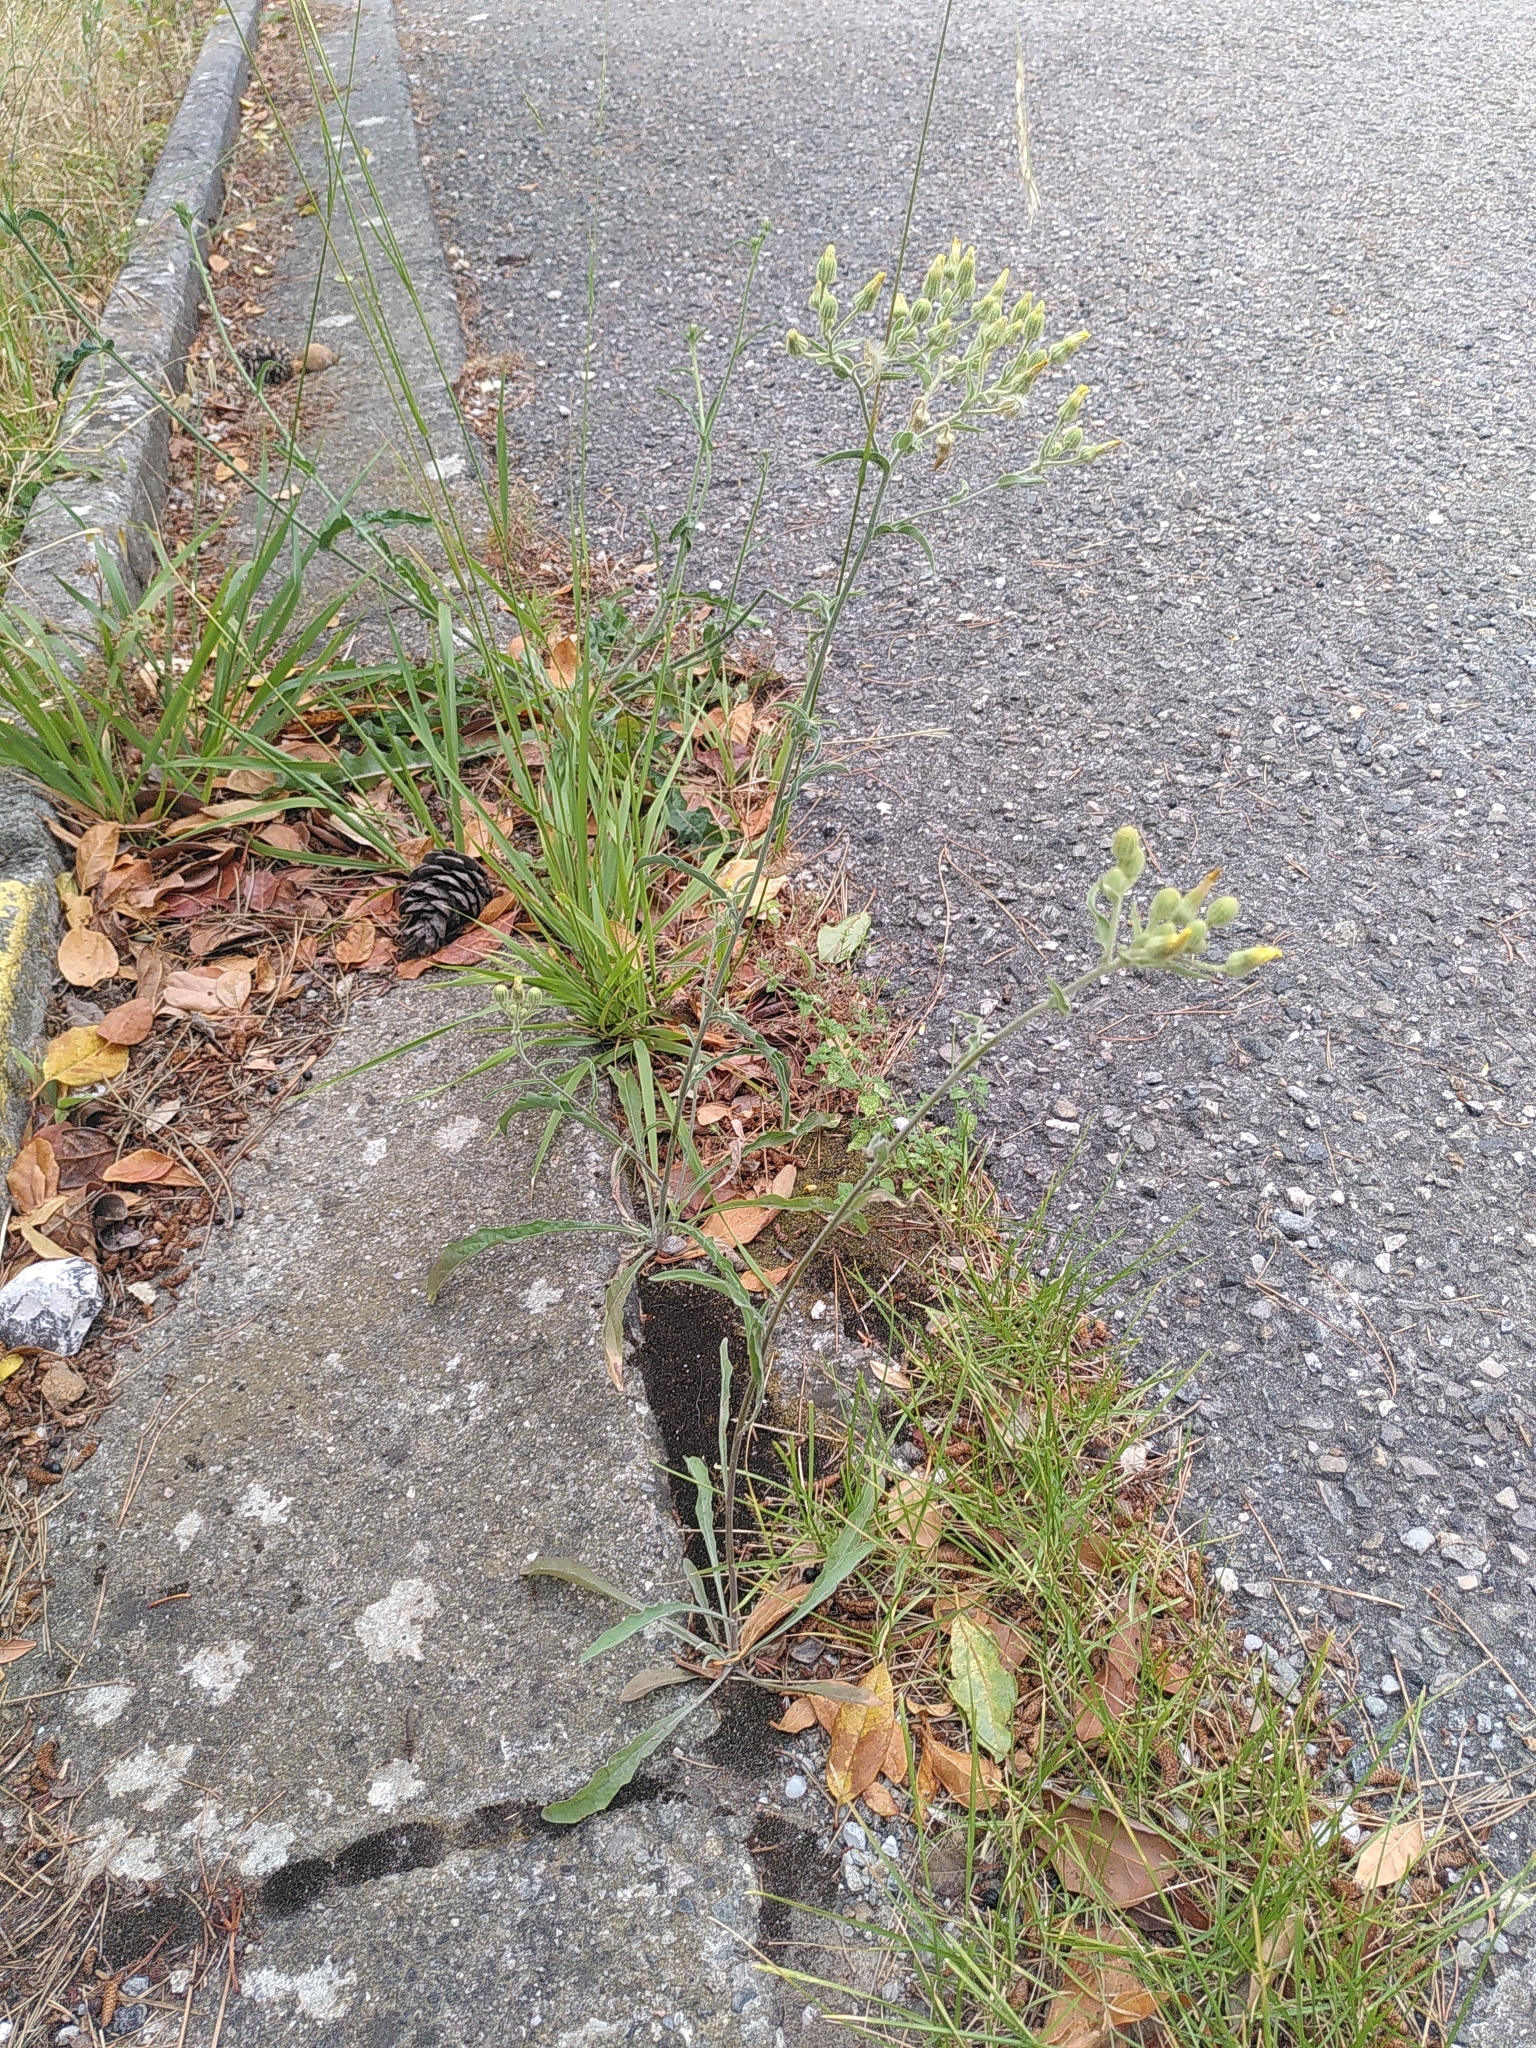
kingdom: Plantae
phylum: Tracheophyta
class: Magnoliopsida
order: Asterales
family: Asteraceae
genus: Andryala
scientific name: Andryala integrifolia
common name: Common andryala
